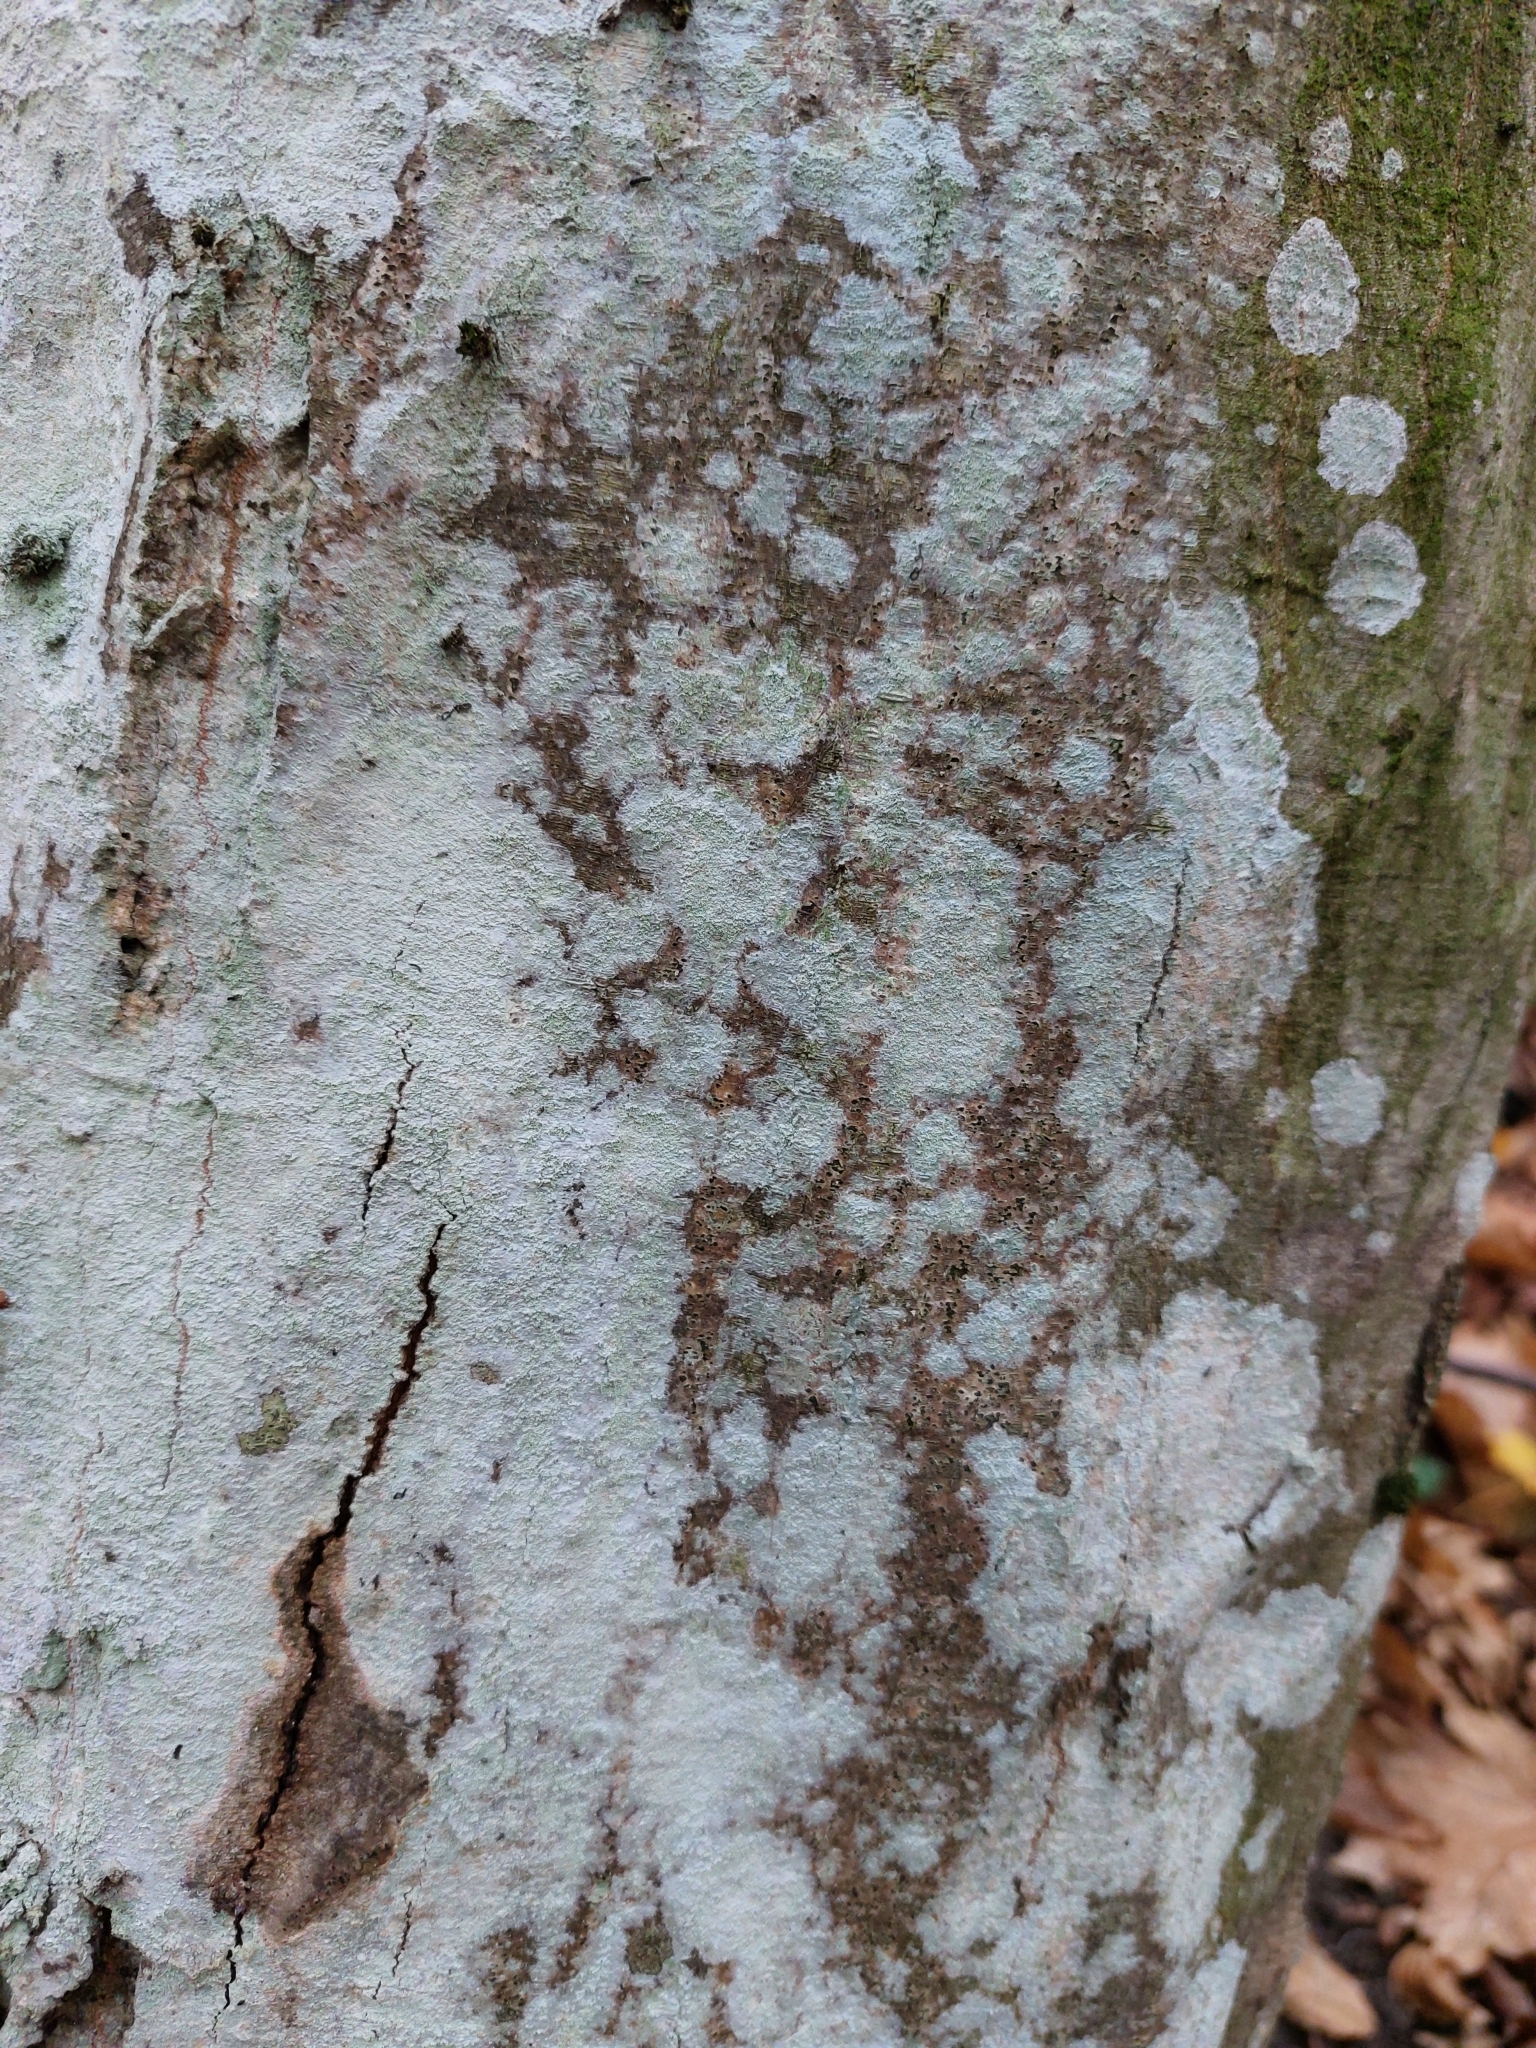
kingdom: Fungi
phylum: Ascomycota
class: Lecanoromycetes
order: Ostropales
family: Phlyctidaceae
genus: Phlyctis
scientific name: Phlyctis argena
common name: Whitewash lichen
